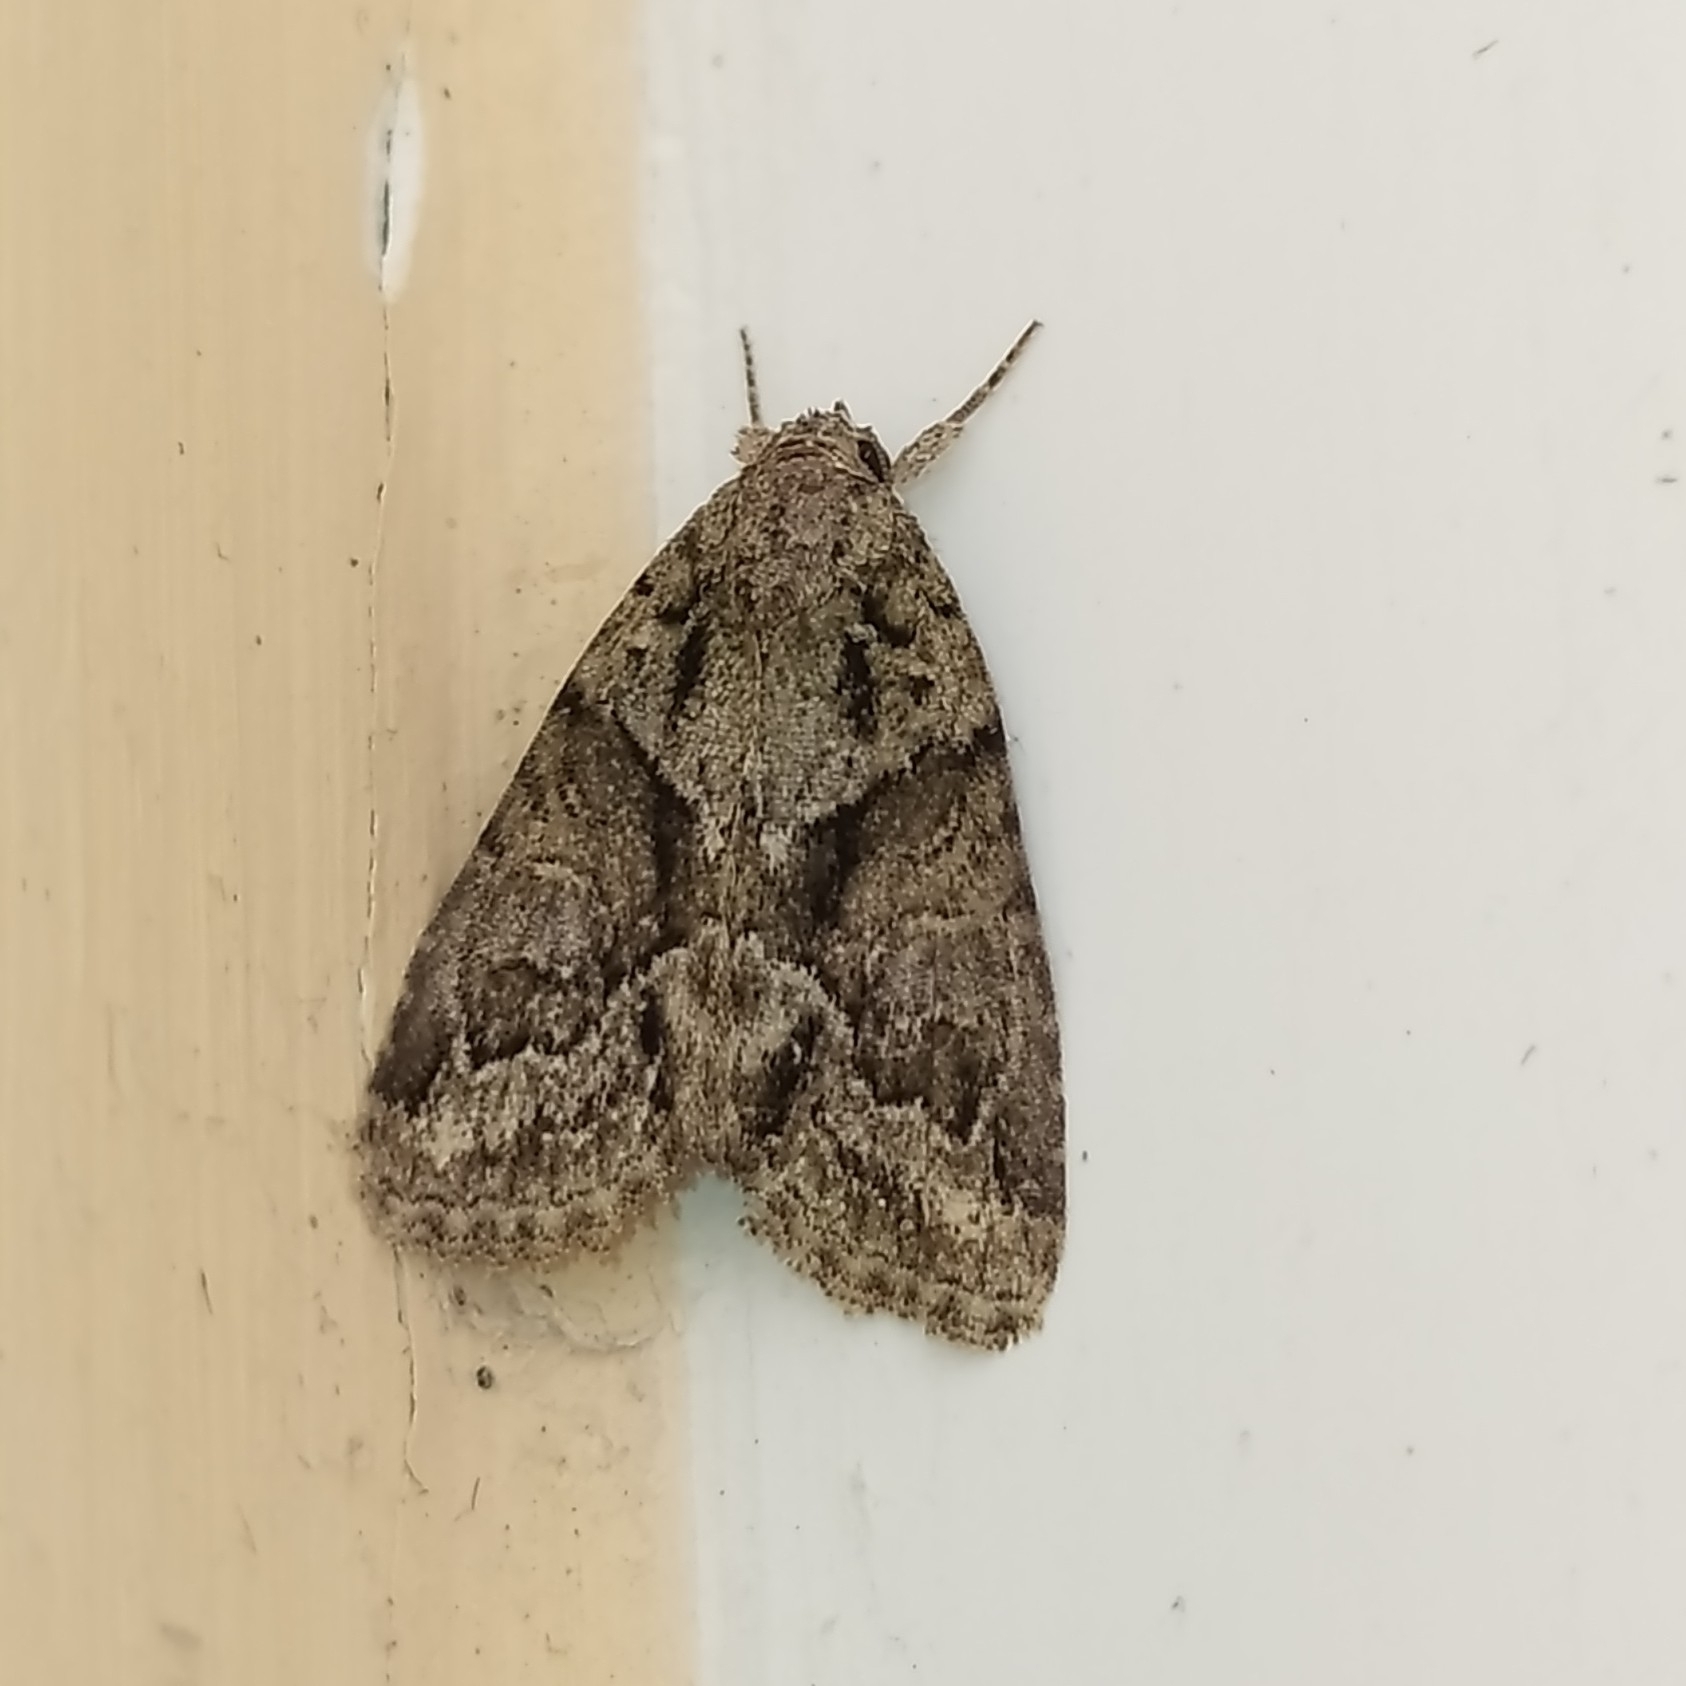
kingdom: Animalia
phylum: Arthropoda
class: Insecta
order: Lepidoptera
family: Noctuidae
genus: Cryphia
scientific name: Cryphia distincta
